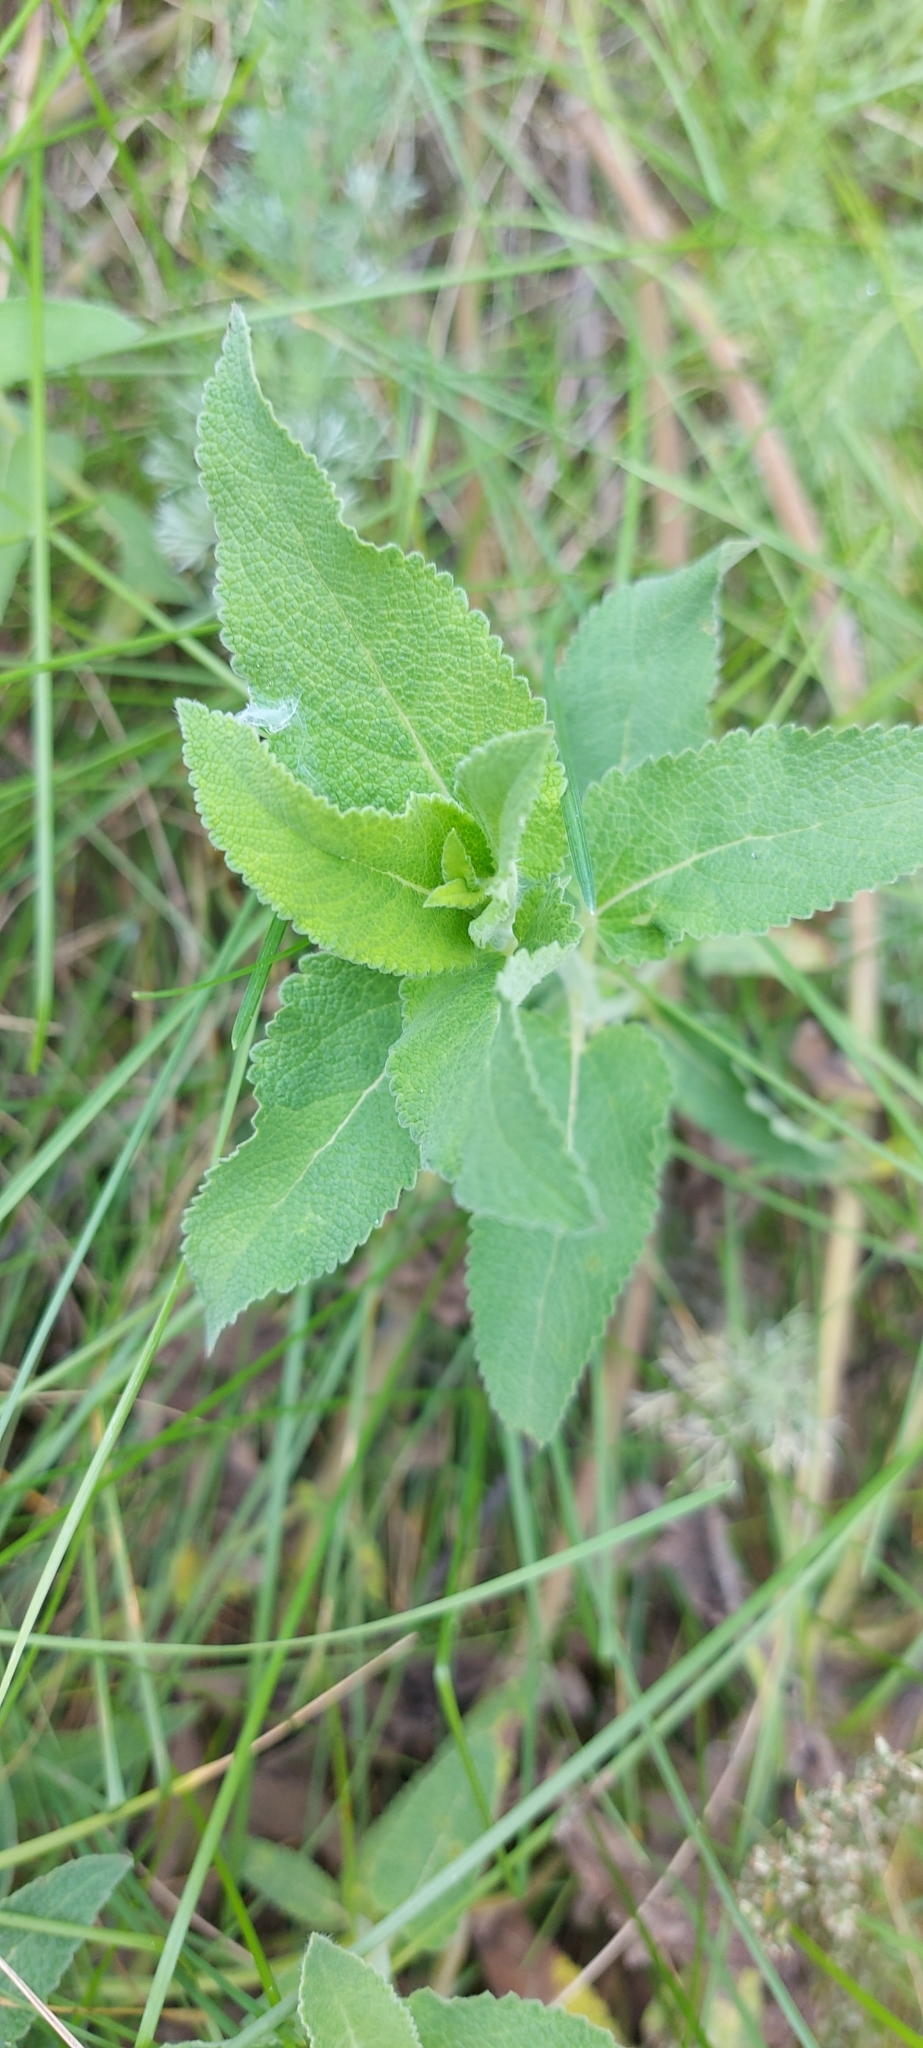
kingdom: Plantae
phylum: Tracheophyta
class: Magnoliopsida
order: Lamiales
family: Lamiaceae
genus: Salvia
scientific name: Salvia nemorosa
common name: Balkan clary
